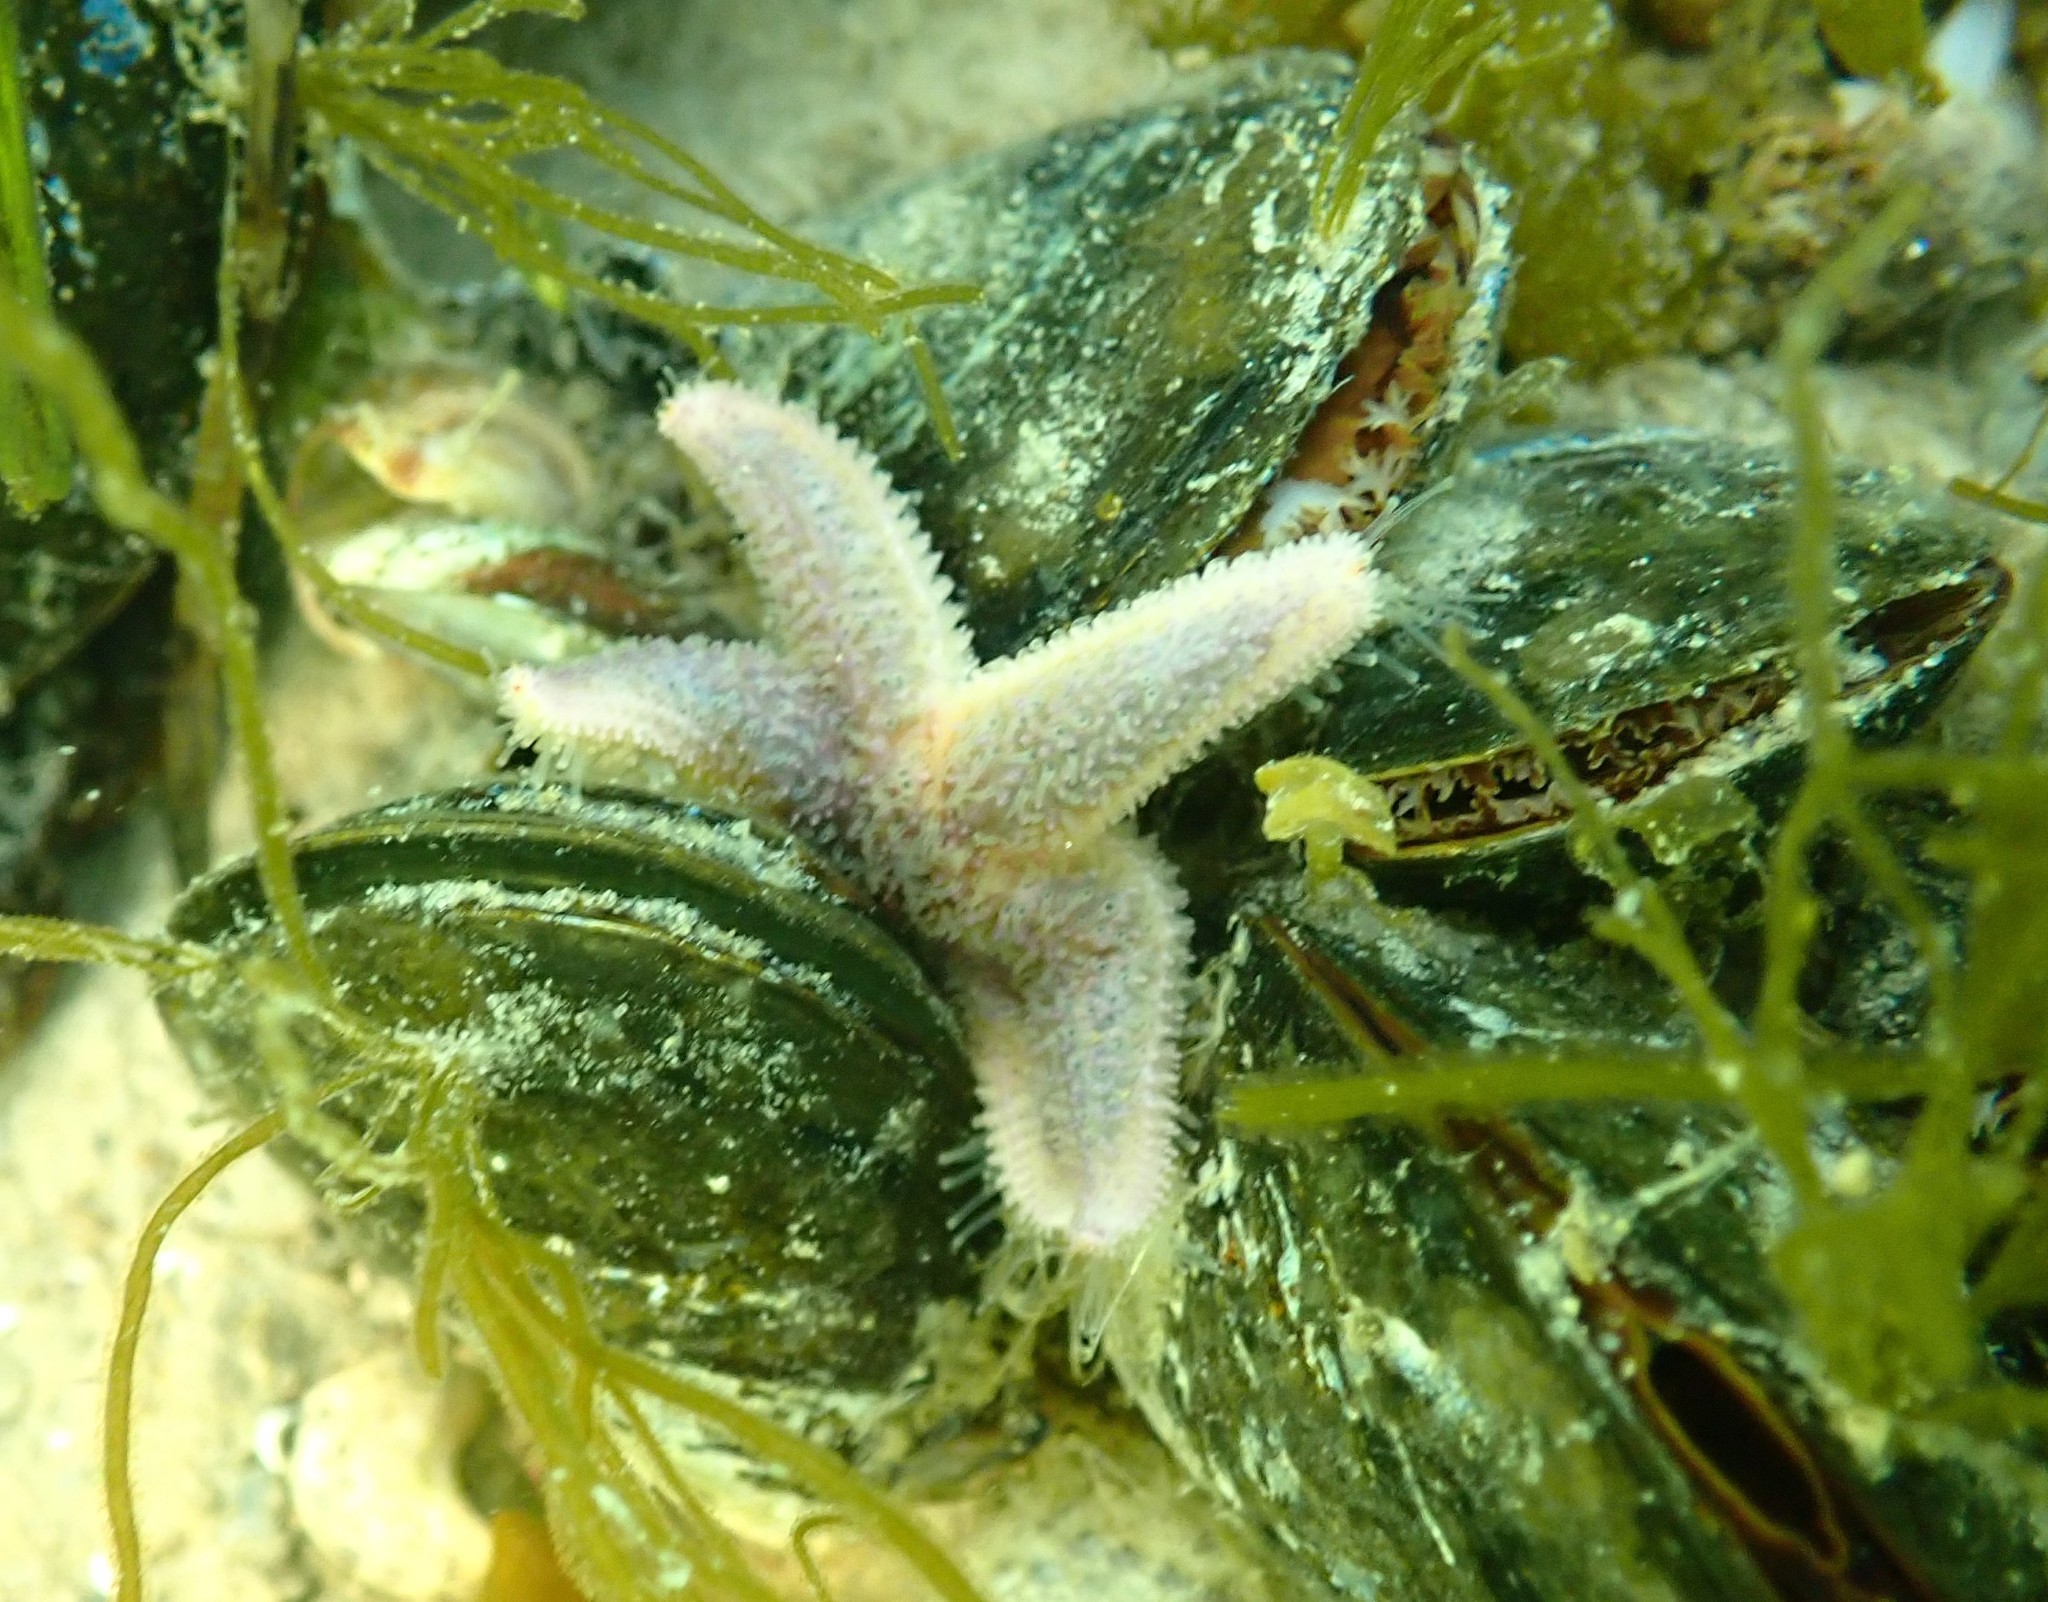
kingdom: Animalia
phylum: Echinodermata
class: Asteroidea
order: Forcipulatida
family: Asteriidae
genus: Asterias
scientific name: Asterias rubens
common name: Common starfish
